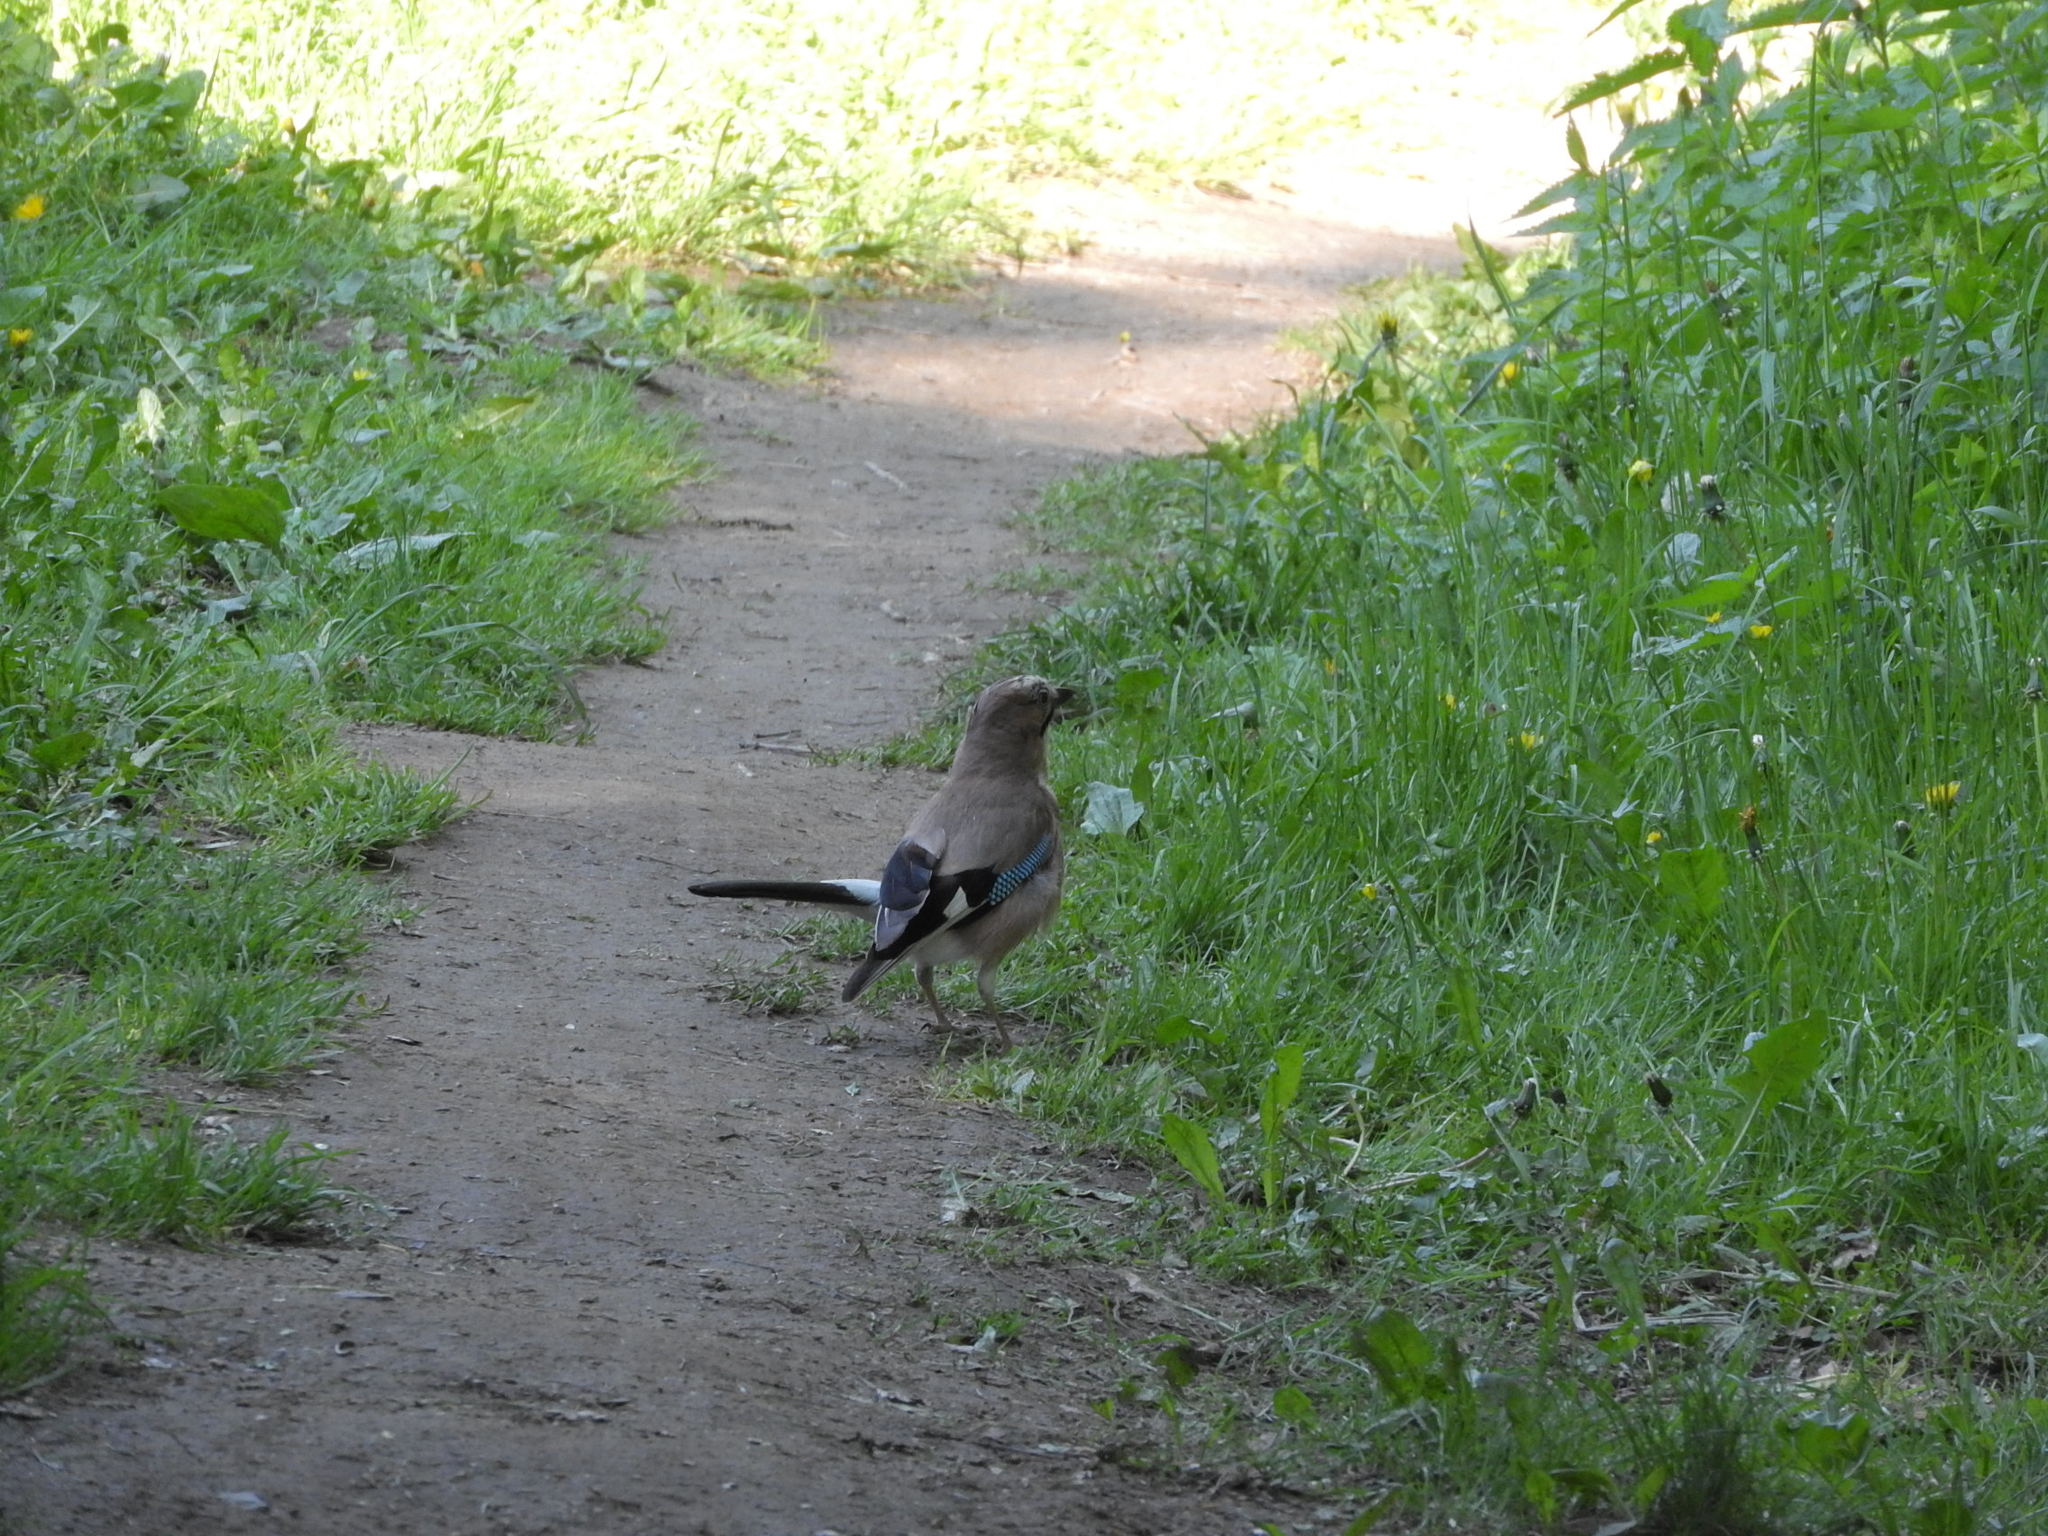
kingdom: Animalia
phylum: Chordata
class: Aves
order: Passeriformes
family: Corvidae
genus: Garrulus
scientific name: Garrulus glandarius
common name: Eurasian jay
